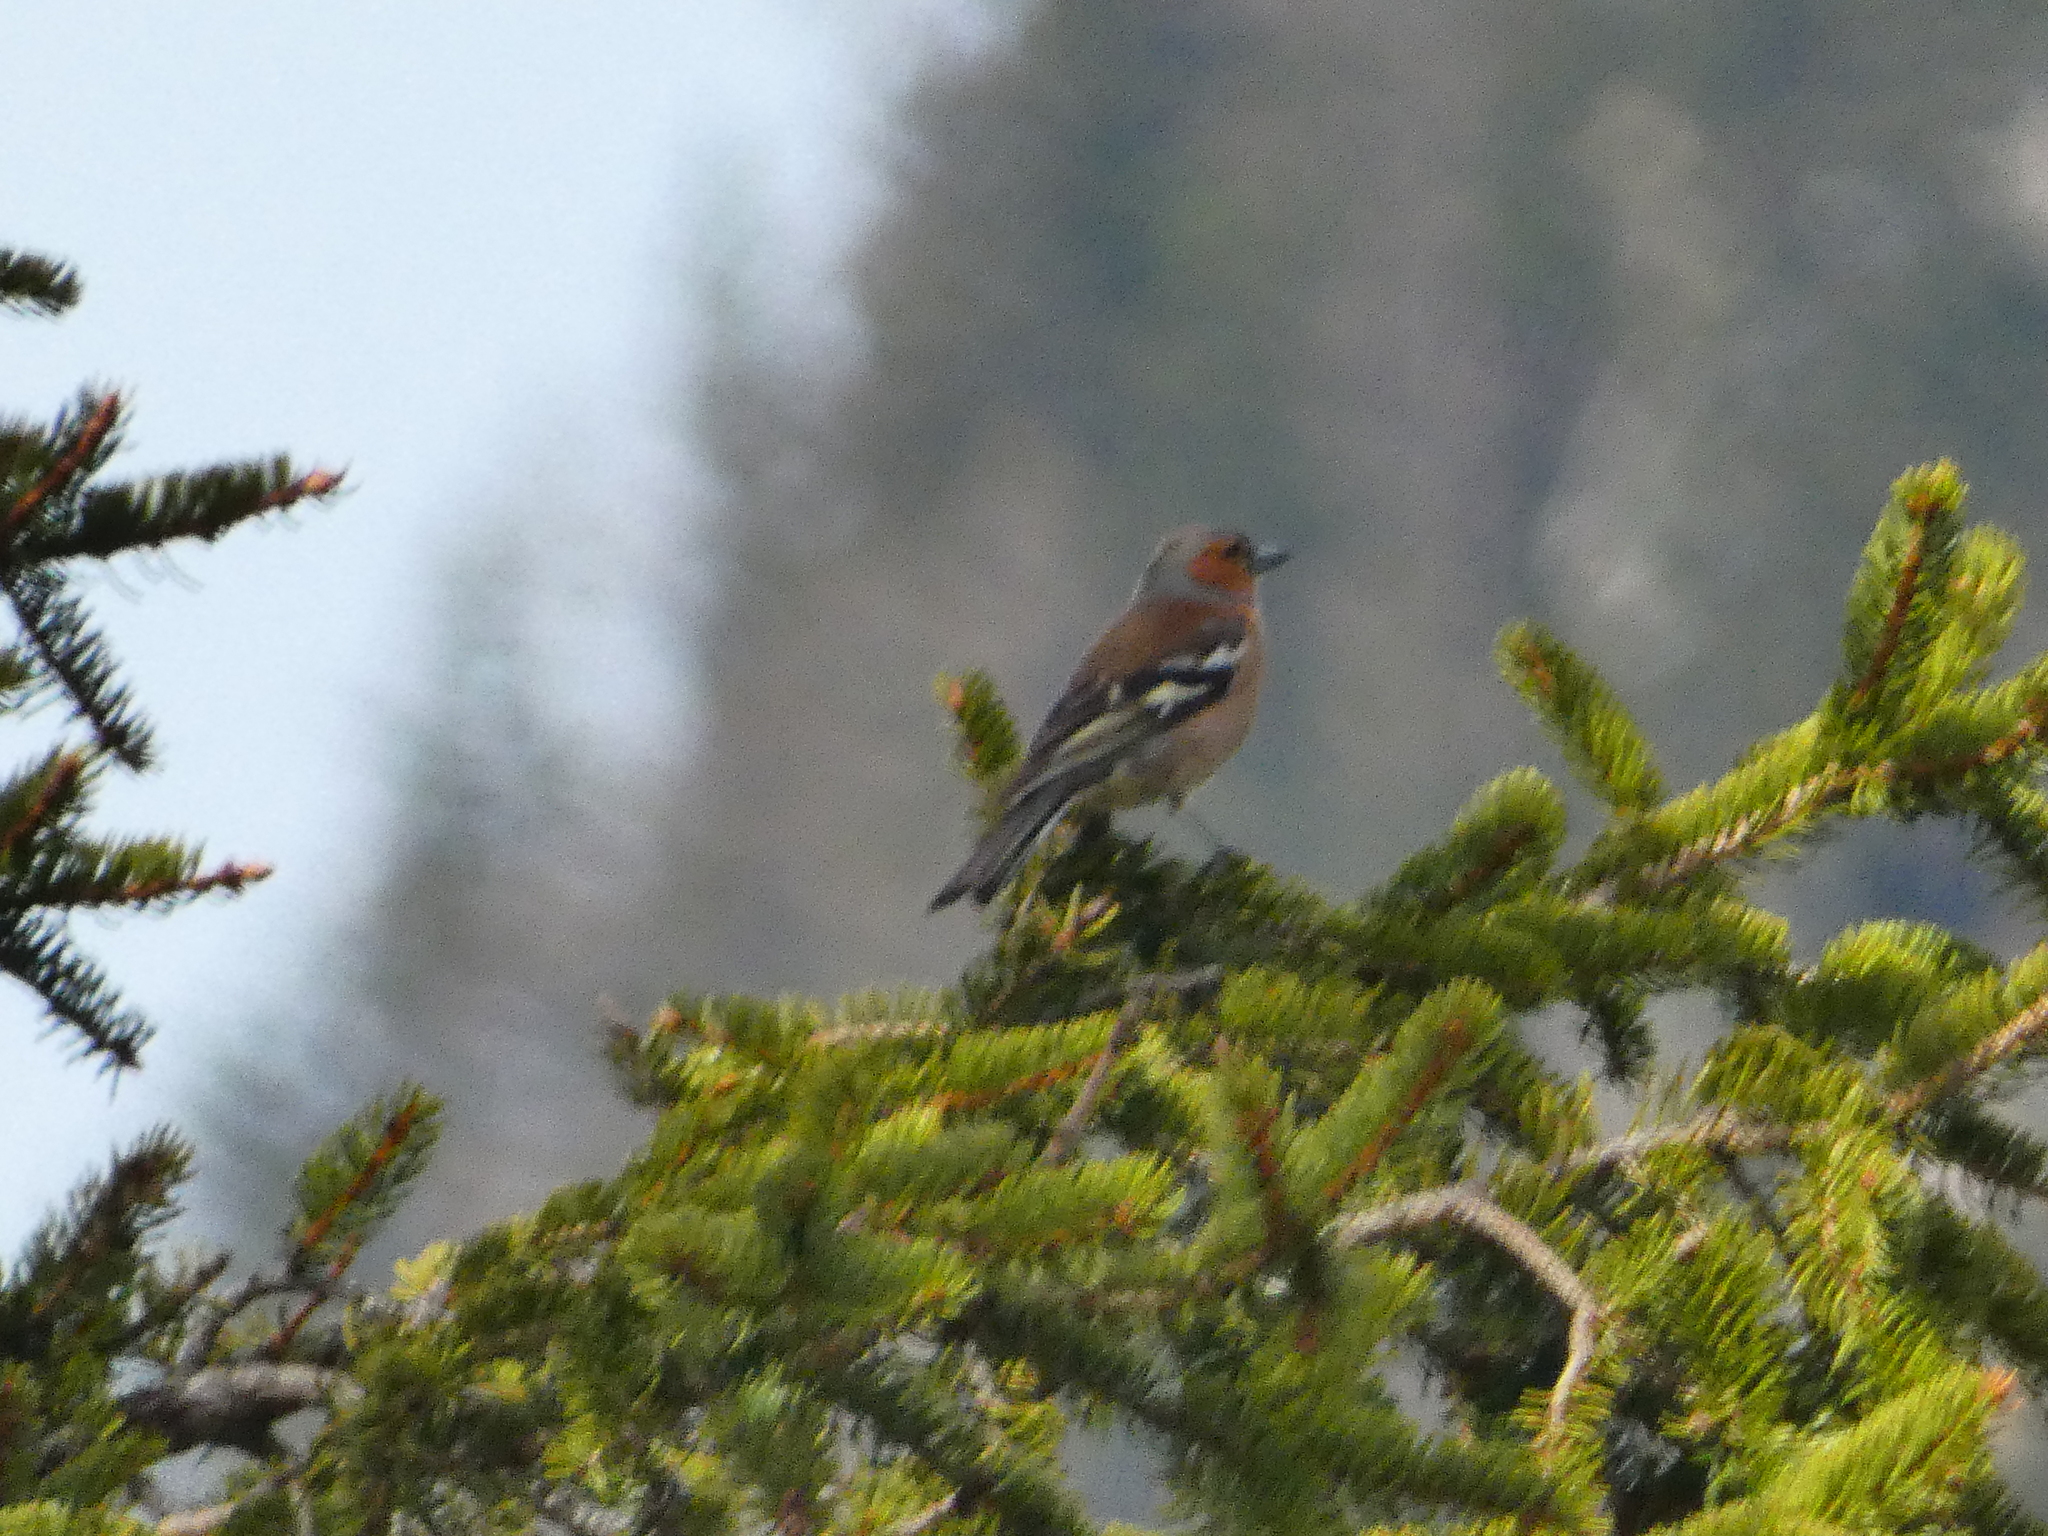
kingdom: Animalia
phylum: Chordata
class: Aves
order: Passeriformes
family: Fringillidae
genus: Fringilla
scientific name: Fringilla coelebs
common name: Common chaffinch
